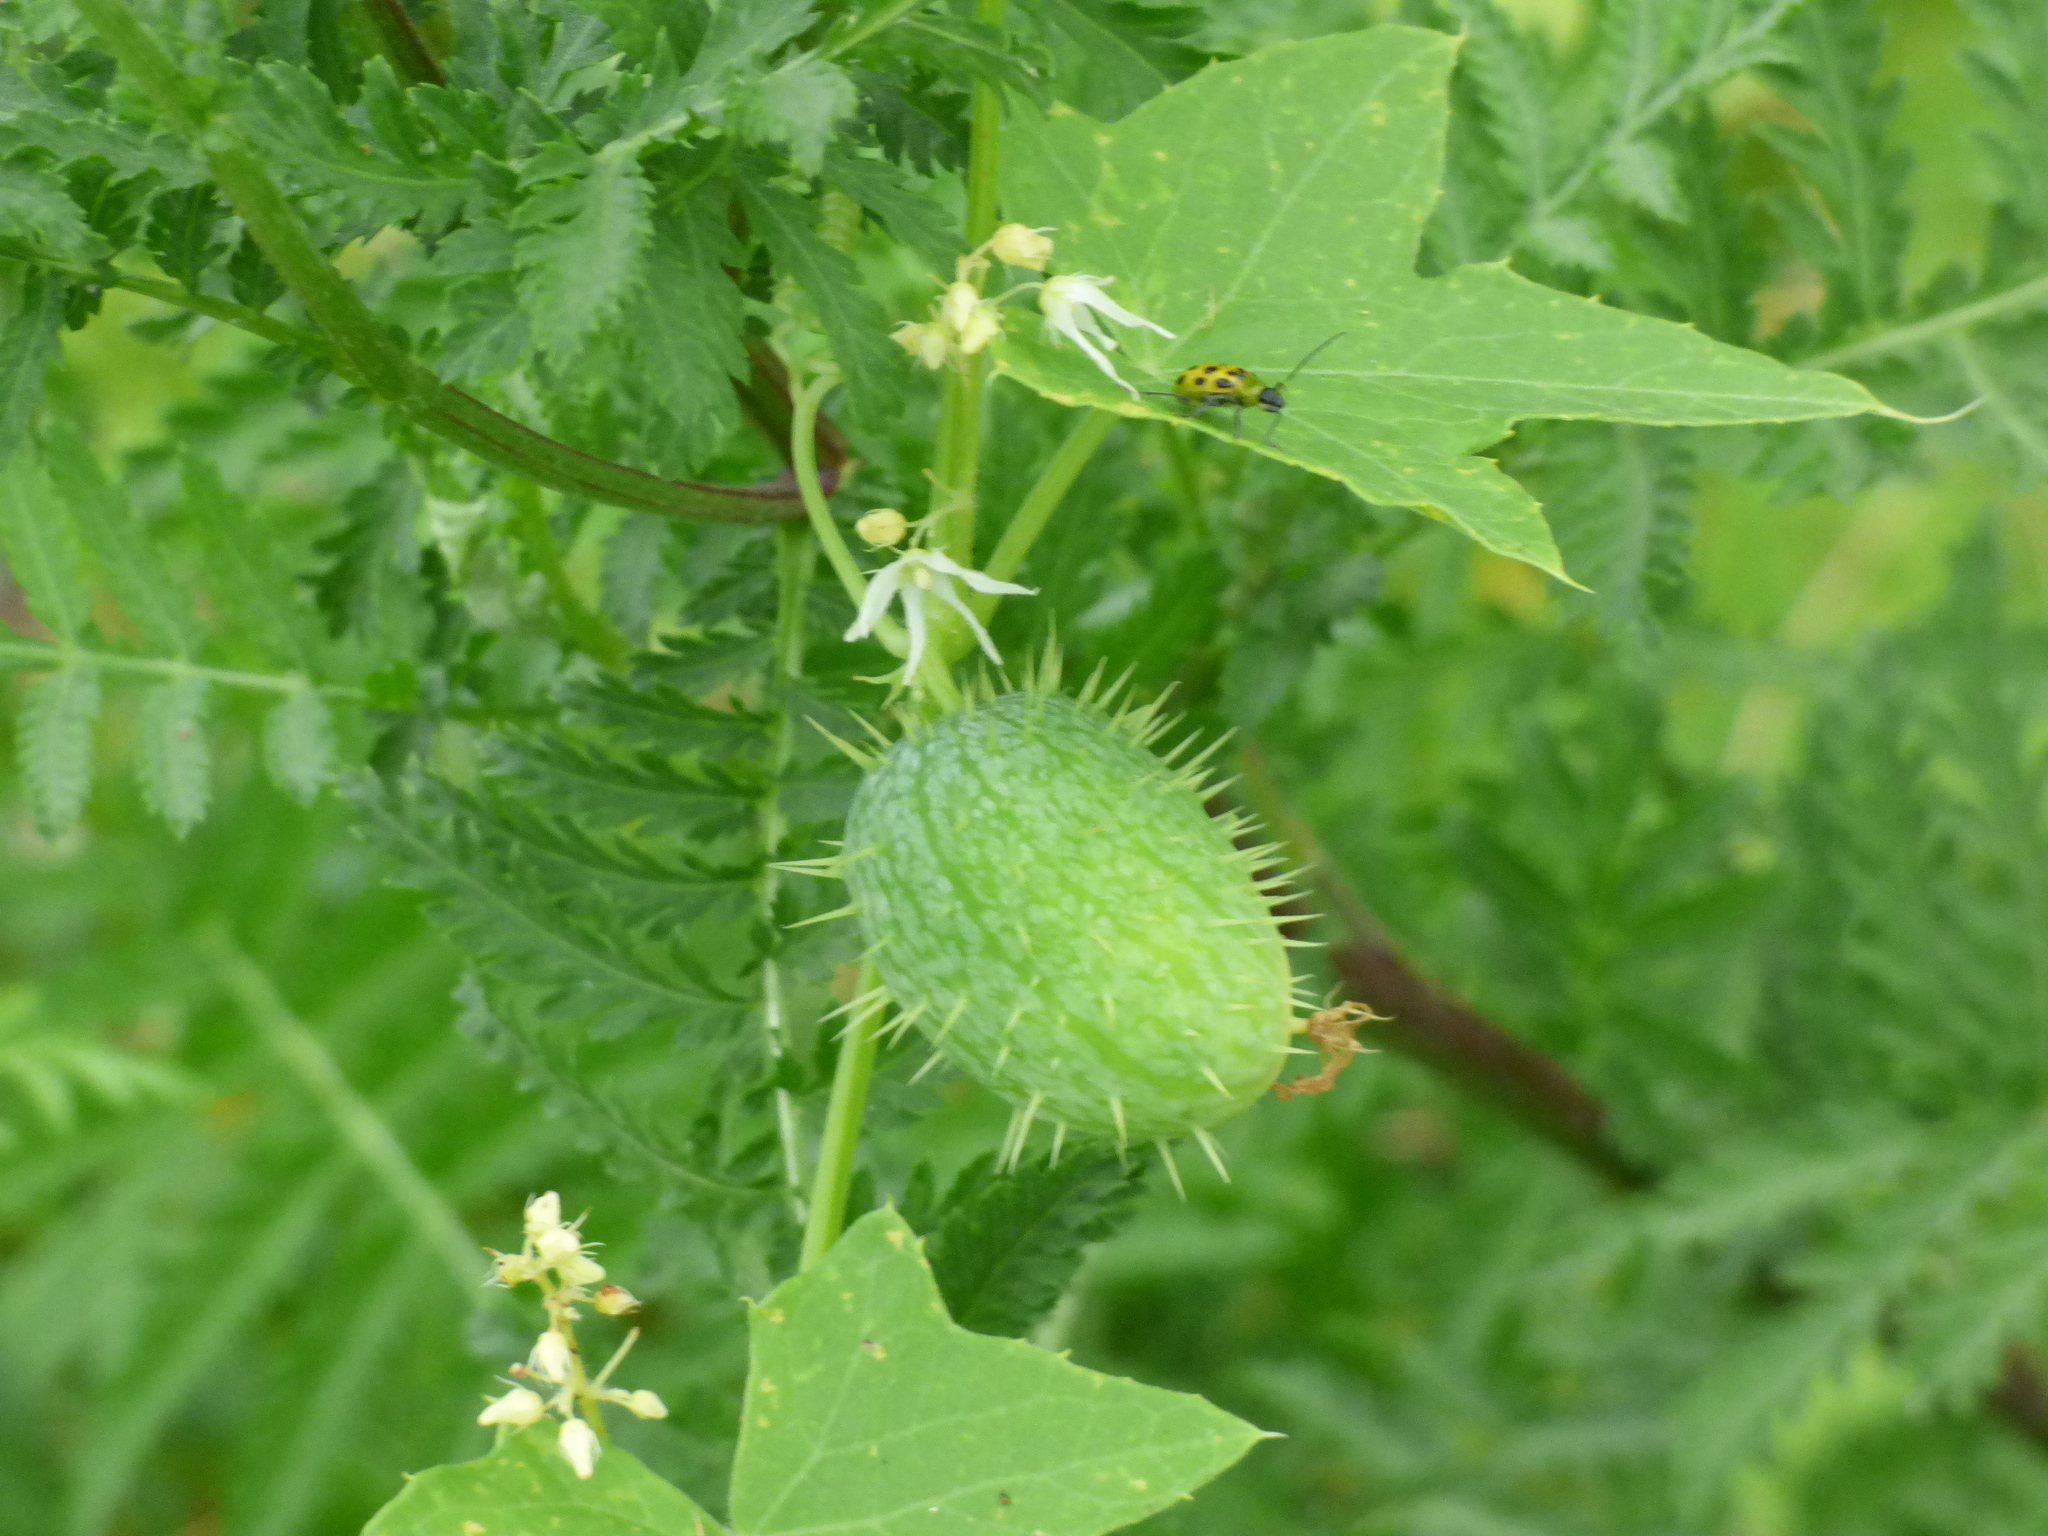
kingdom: Plantae
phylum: Tracheophyta
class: Magnoliopsida
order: Cucurbitales
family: Cucurbitaceae
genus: Echinocystis
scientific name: Echinocystis lobata
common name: Wild cucumber
